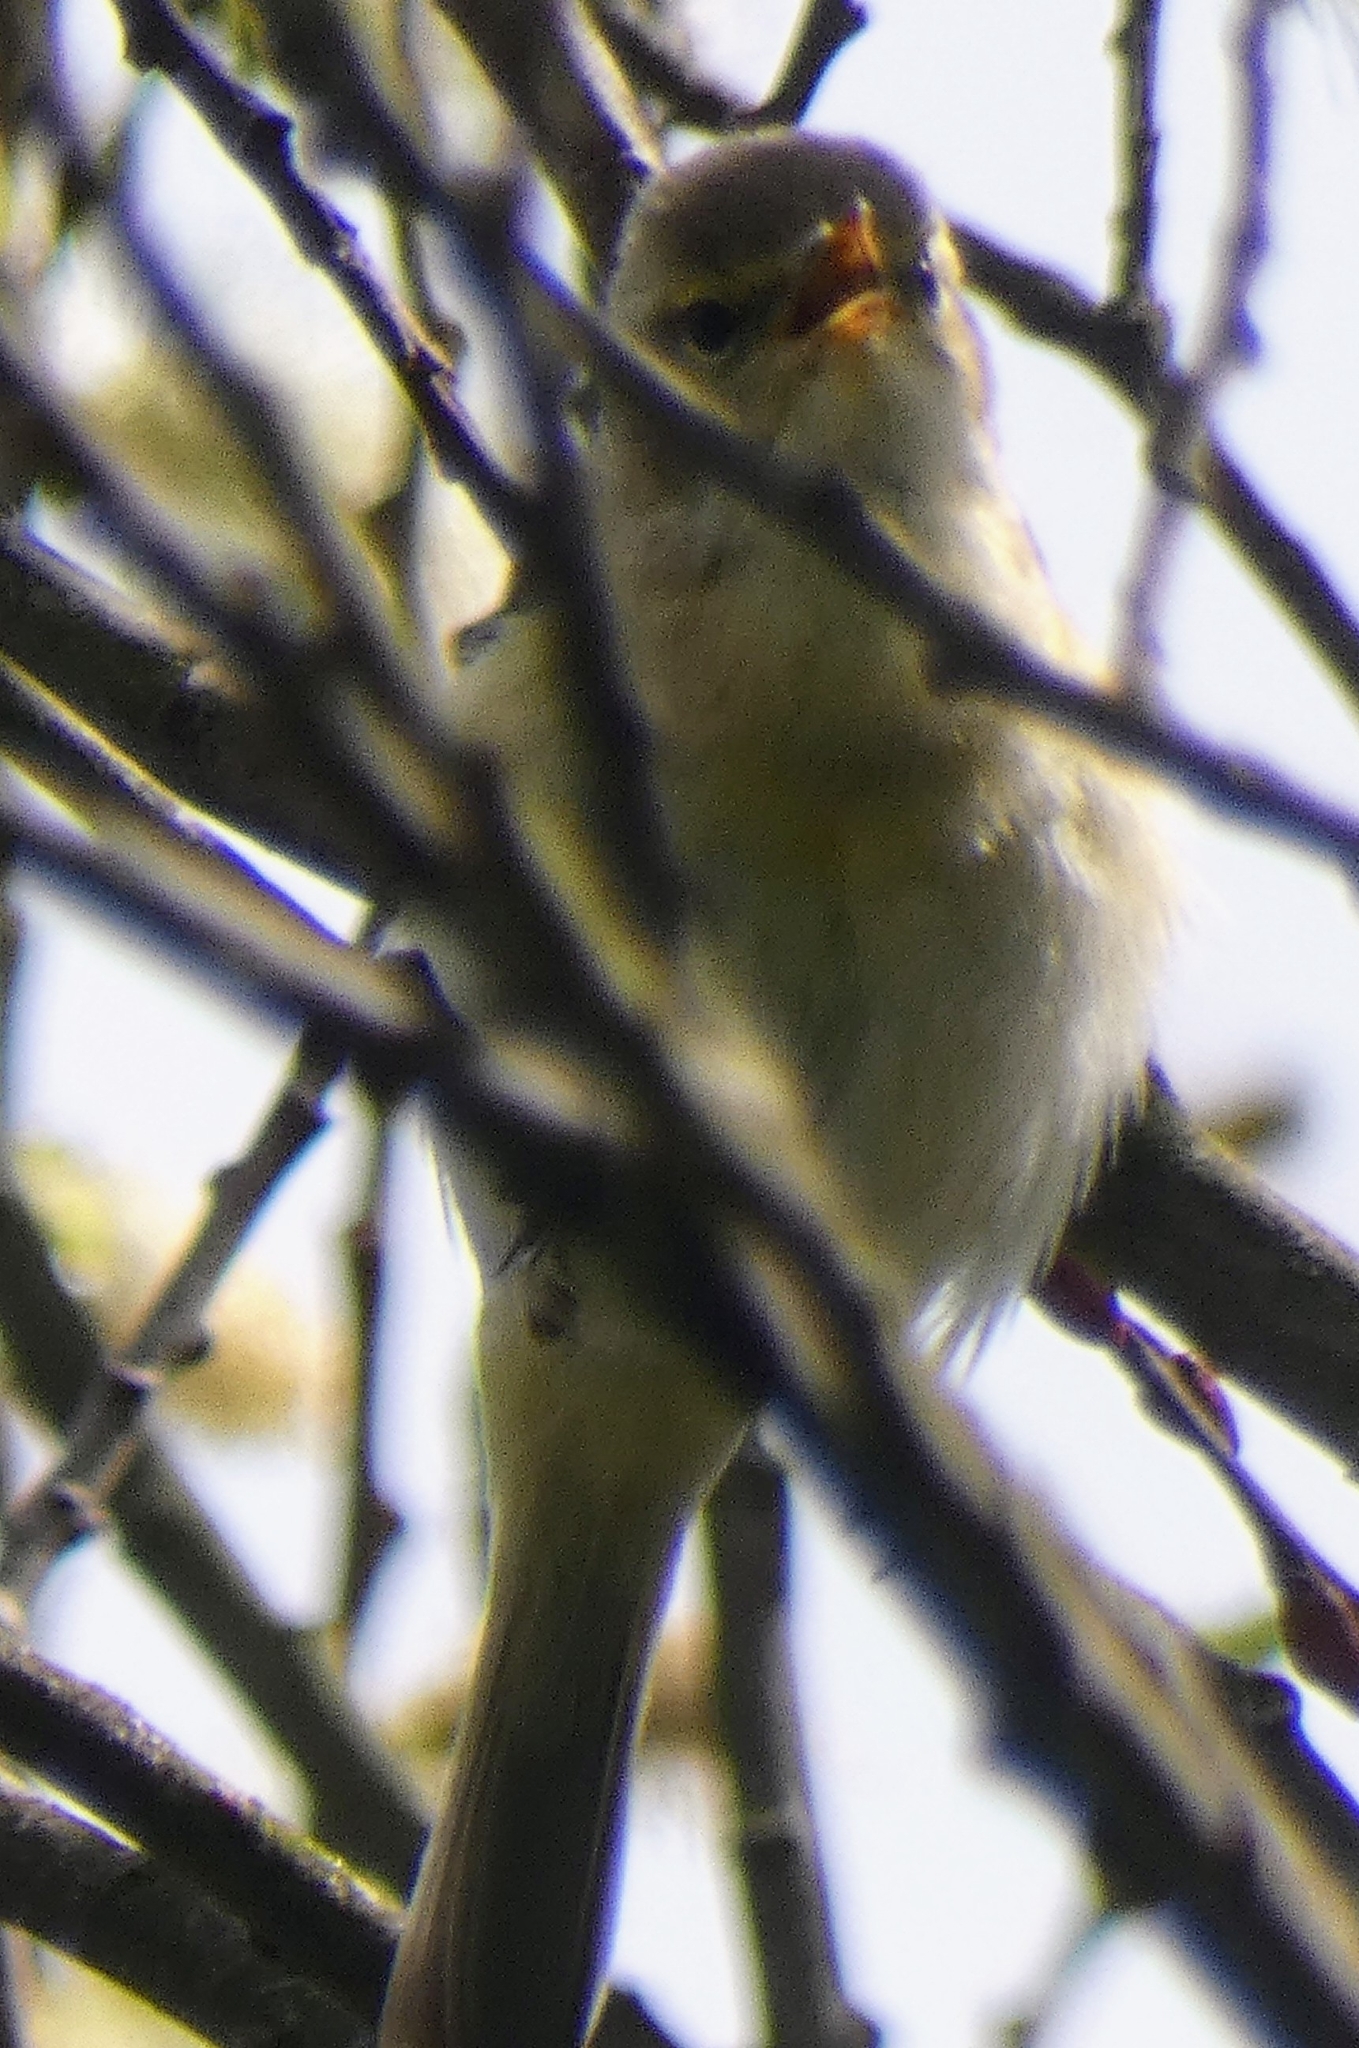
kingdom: Animalia
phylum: Chordata
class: Aves
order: Passeriformes
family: Phylloscopidae
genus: Phylloscopus
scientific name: Phylloscopus collybita
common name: Common chiffchaff
